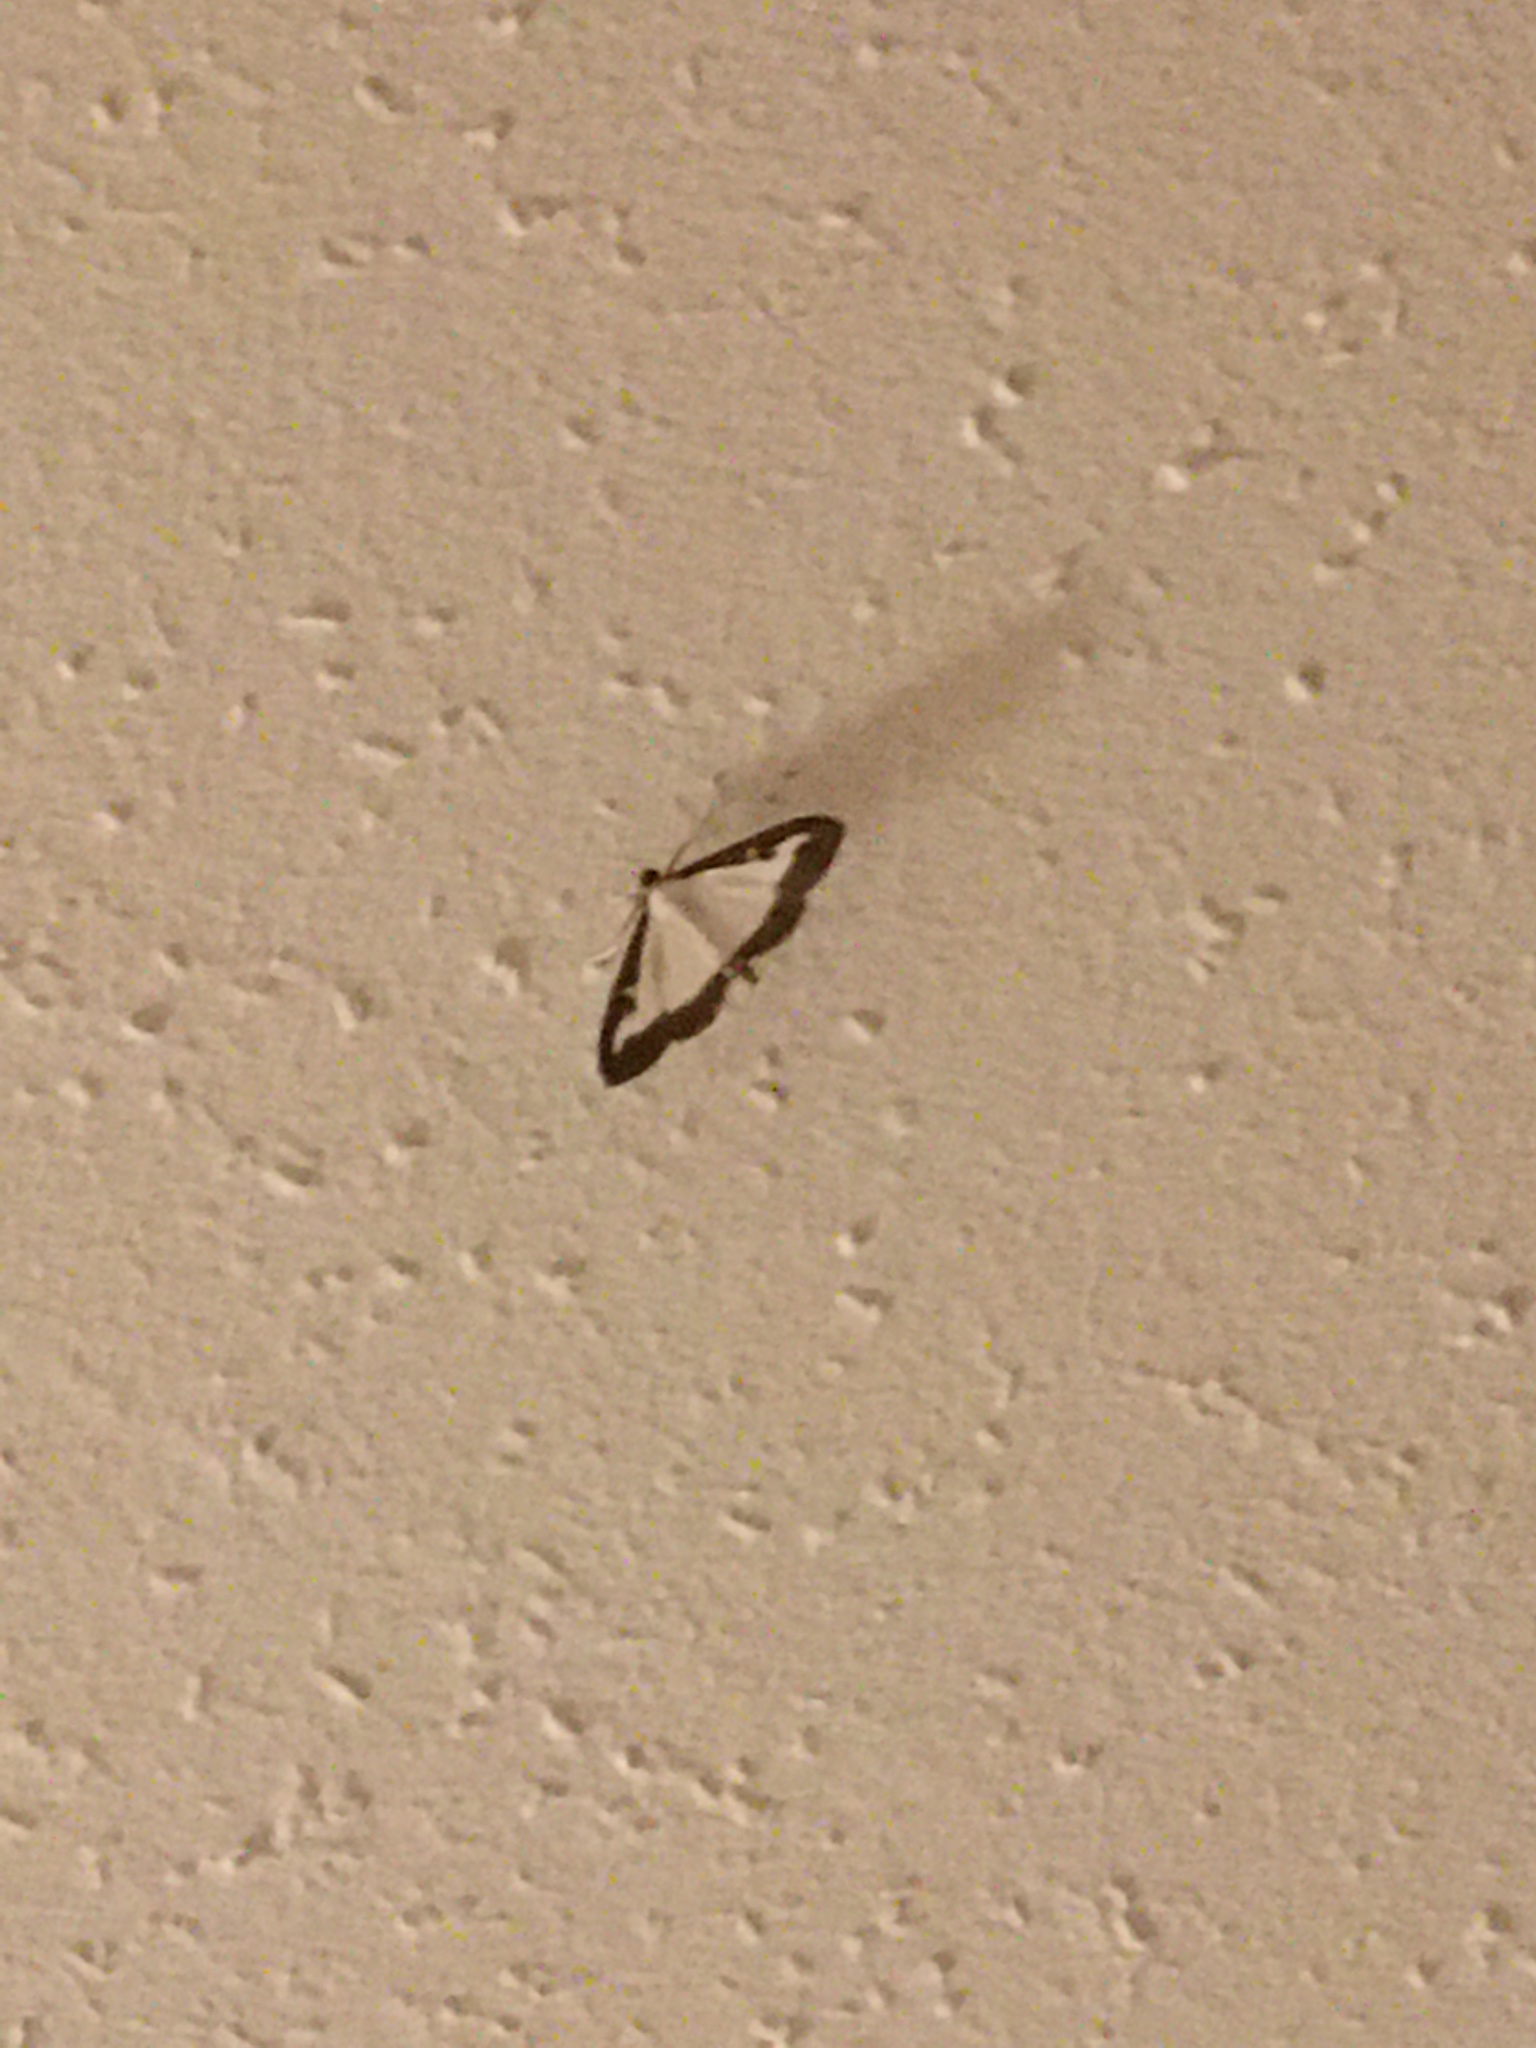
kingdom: Animalia
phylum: Arthropoda
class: Insecta
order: Lepidoptera
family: Crambidae
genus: Cydalima
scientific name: Cydalima perspectalis
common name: Box tree moth
